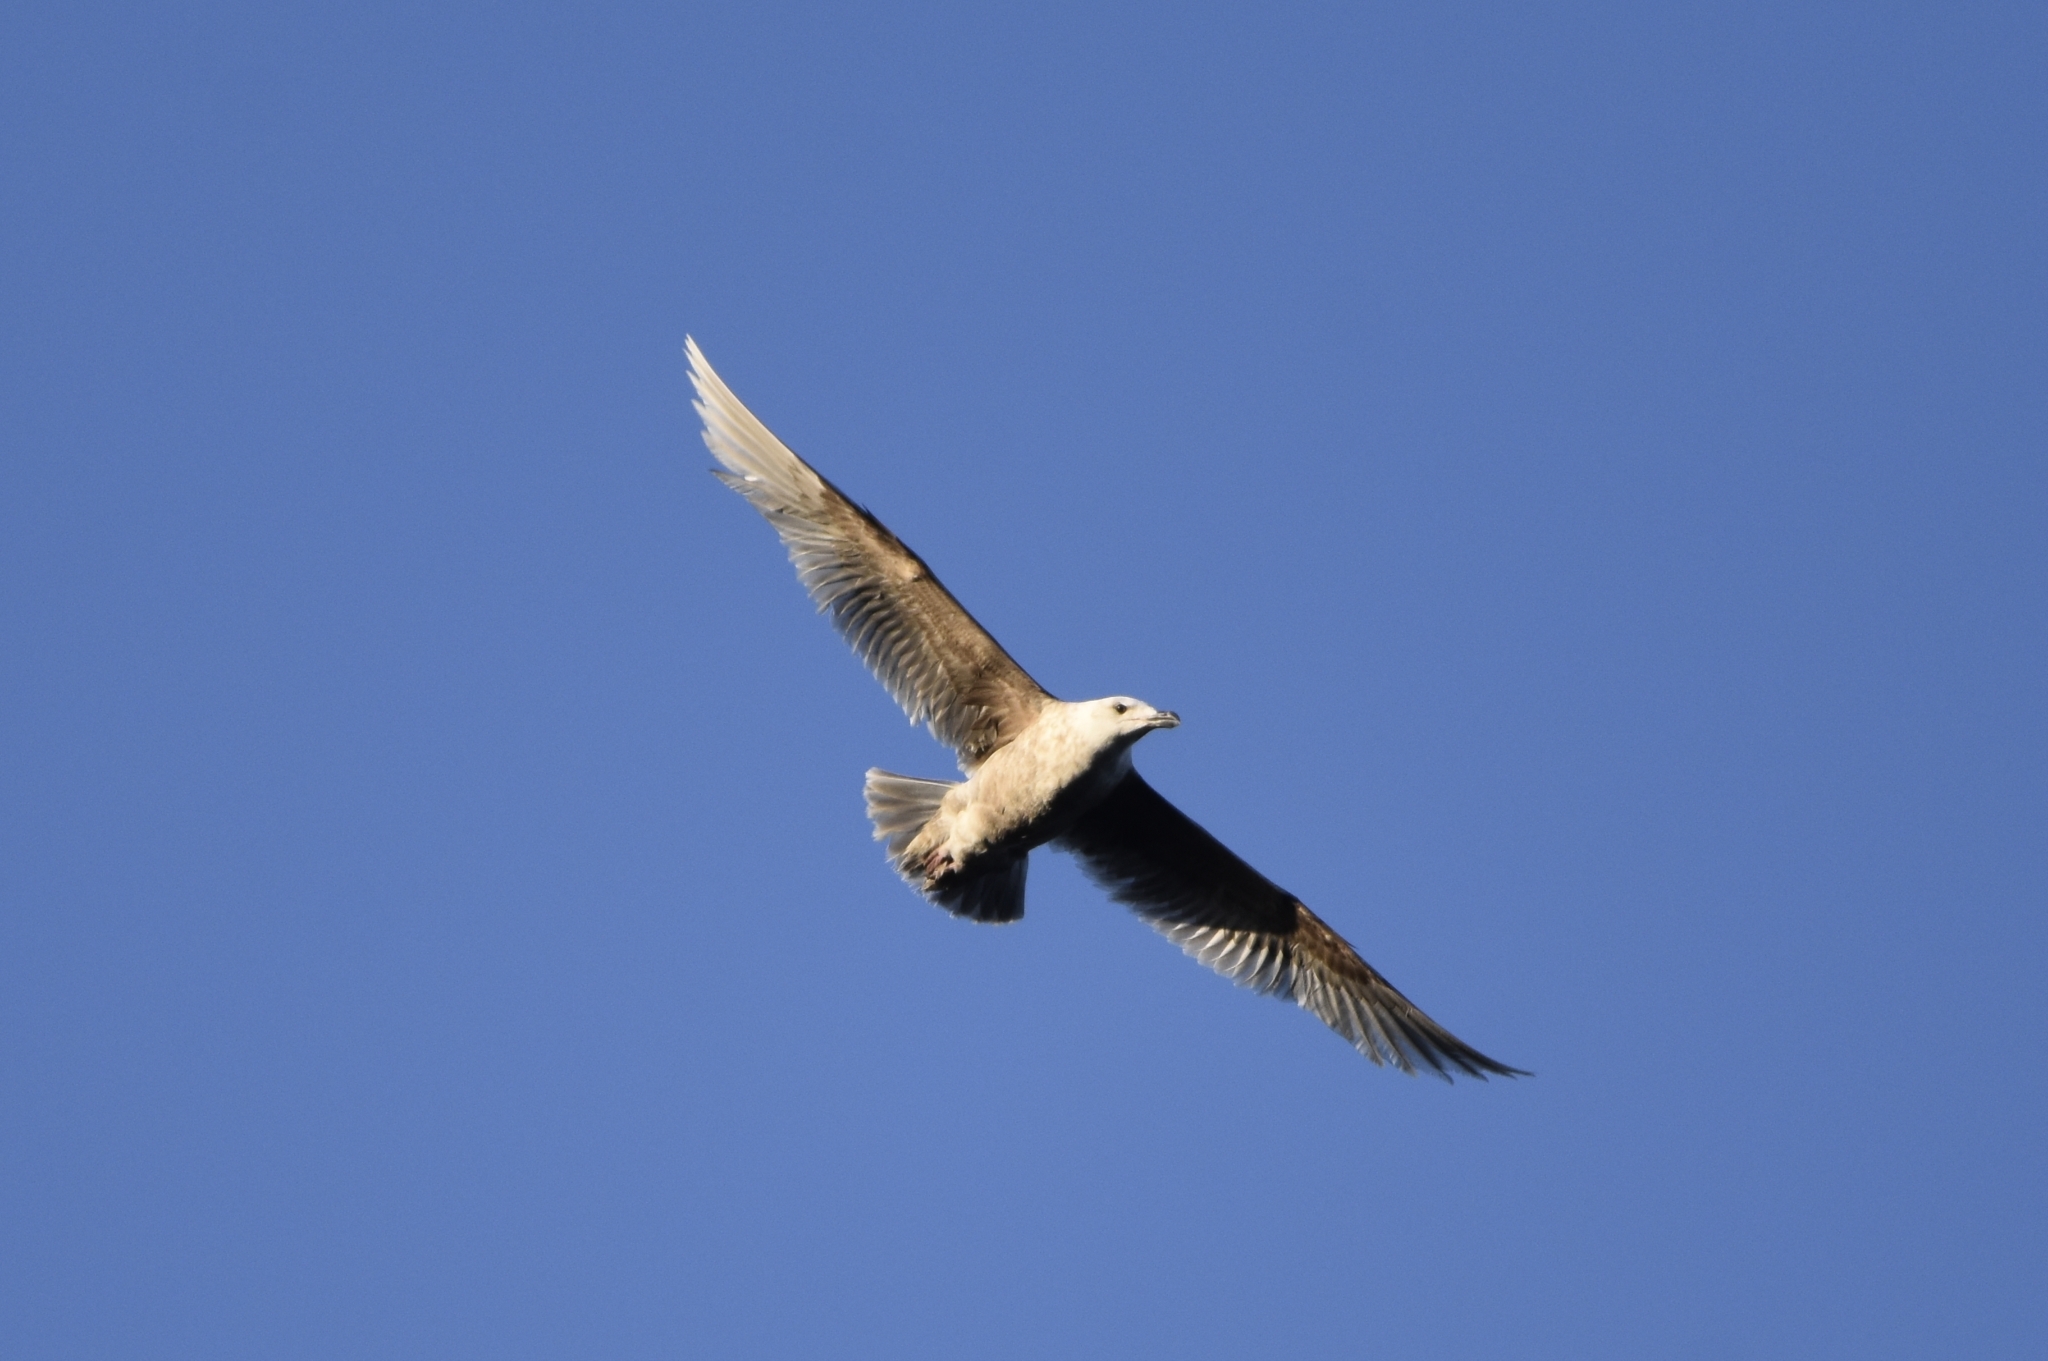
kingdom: Animalia
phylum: Chordata
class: Aves
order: Charadriiformes
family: Laridae
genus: Larus
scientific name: Larus schistisagus
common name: Slaty-backed gull
